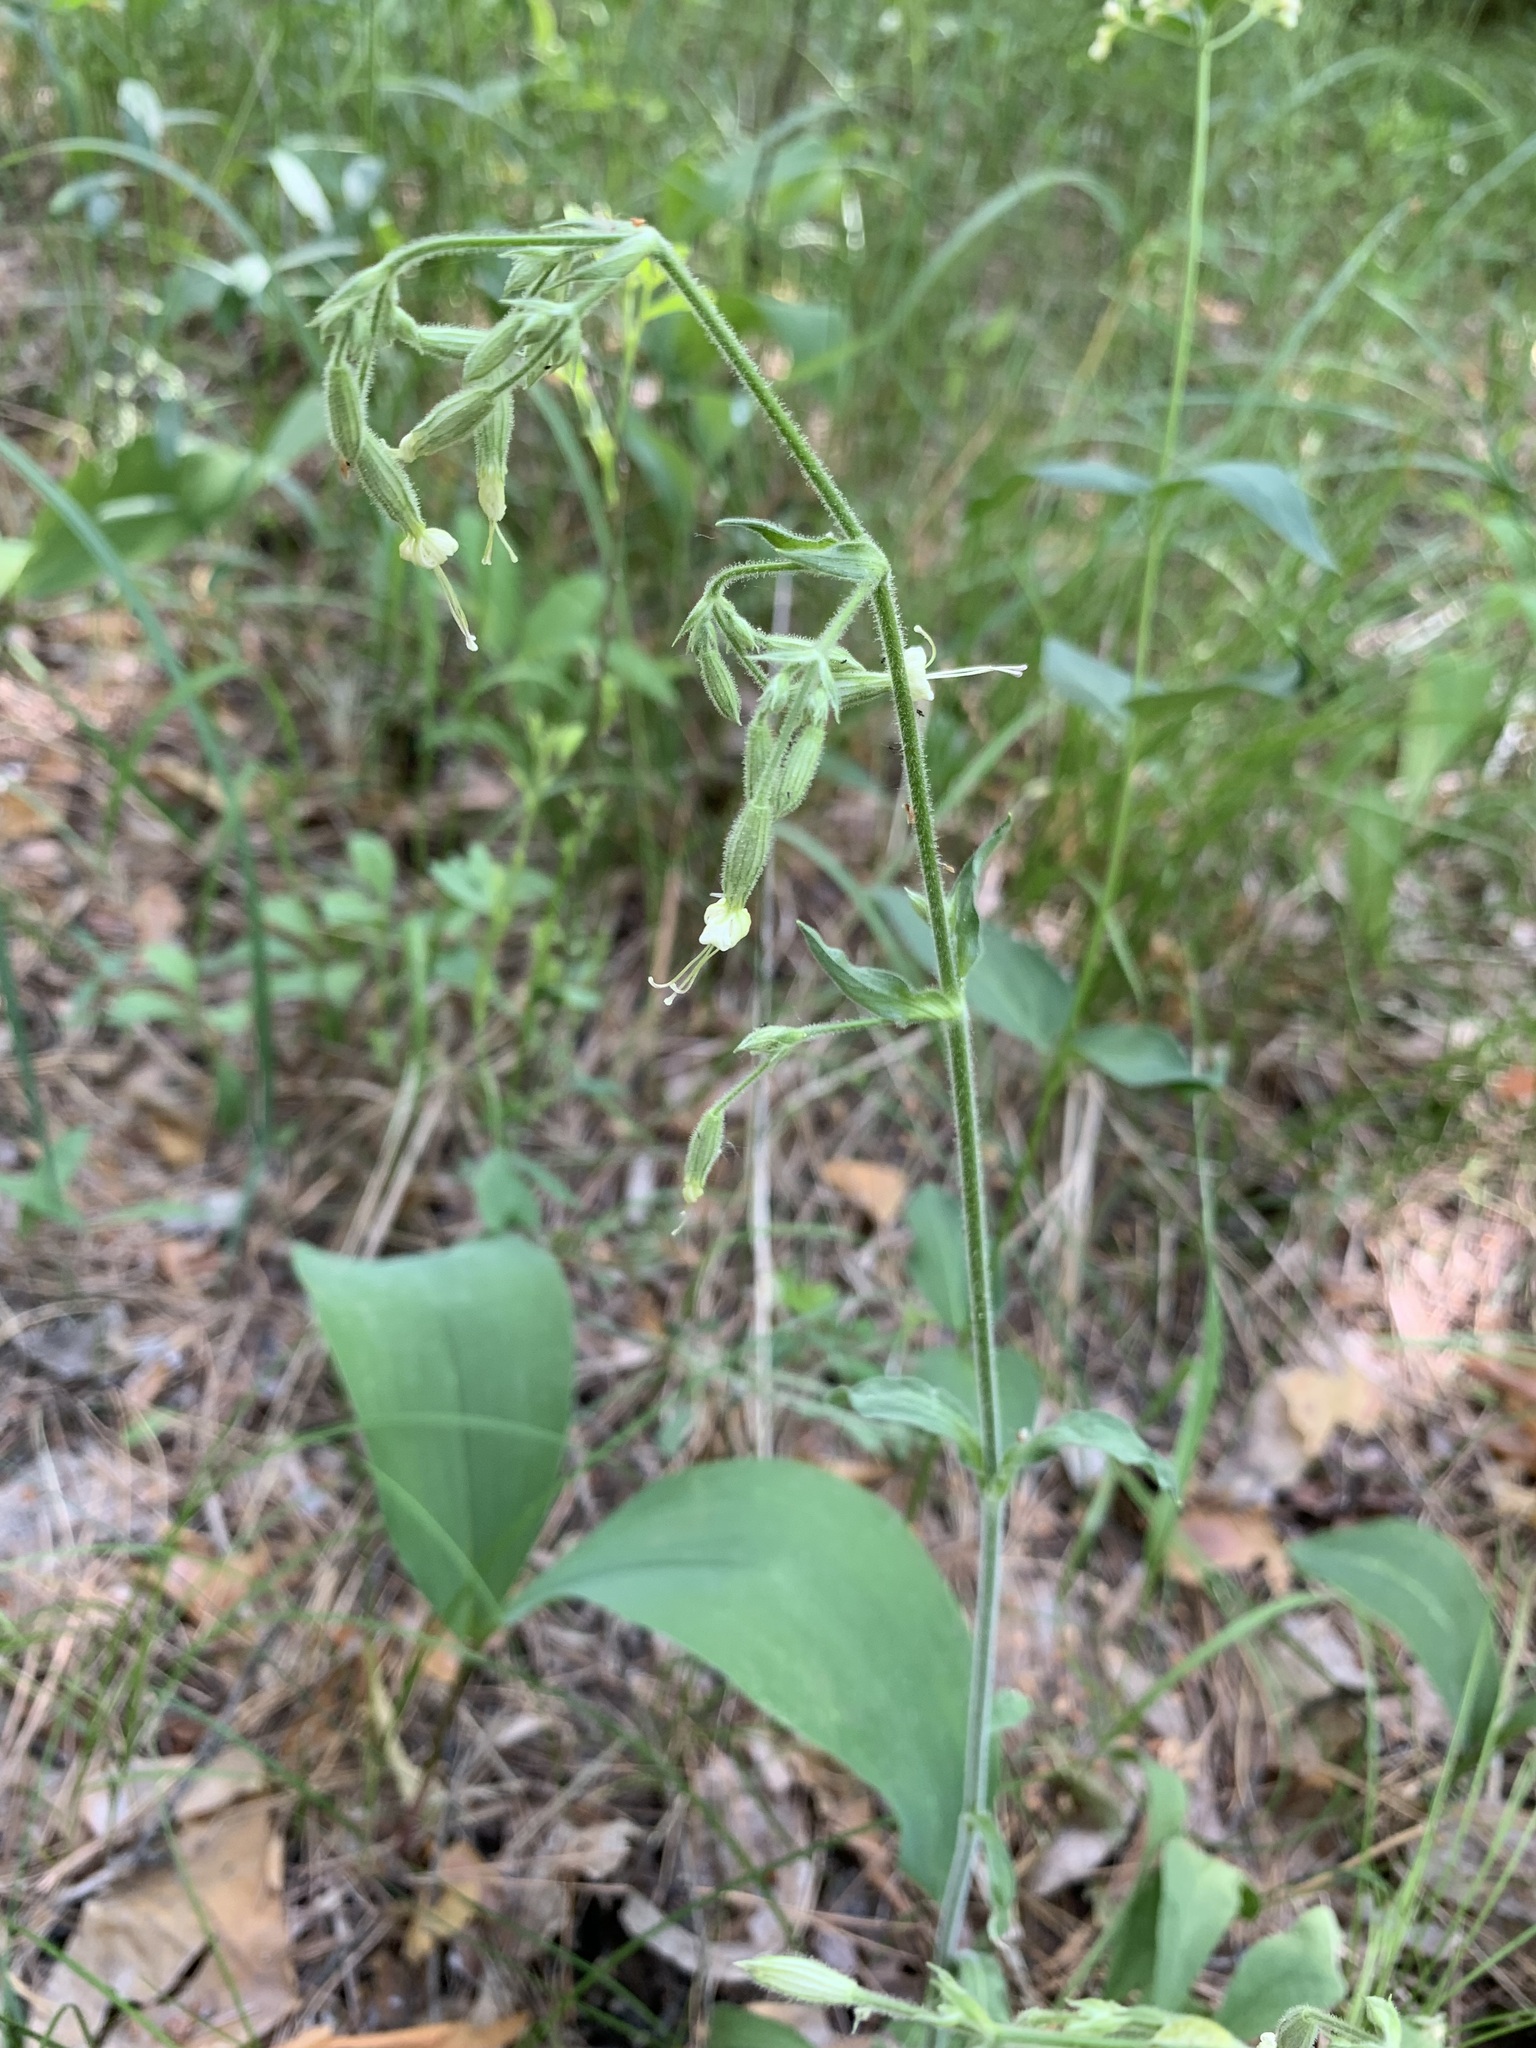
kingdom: Plantae
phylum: Tracheophyta
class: Magnoliopsida
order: Caryophyllales
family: Caryophyllaceae
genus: Silene
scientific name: Silene nutans
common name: Nottingham catchfly
